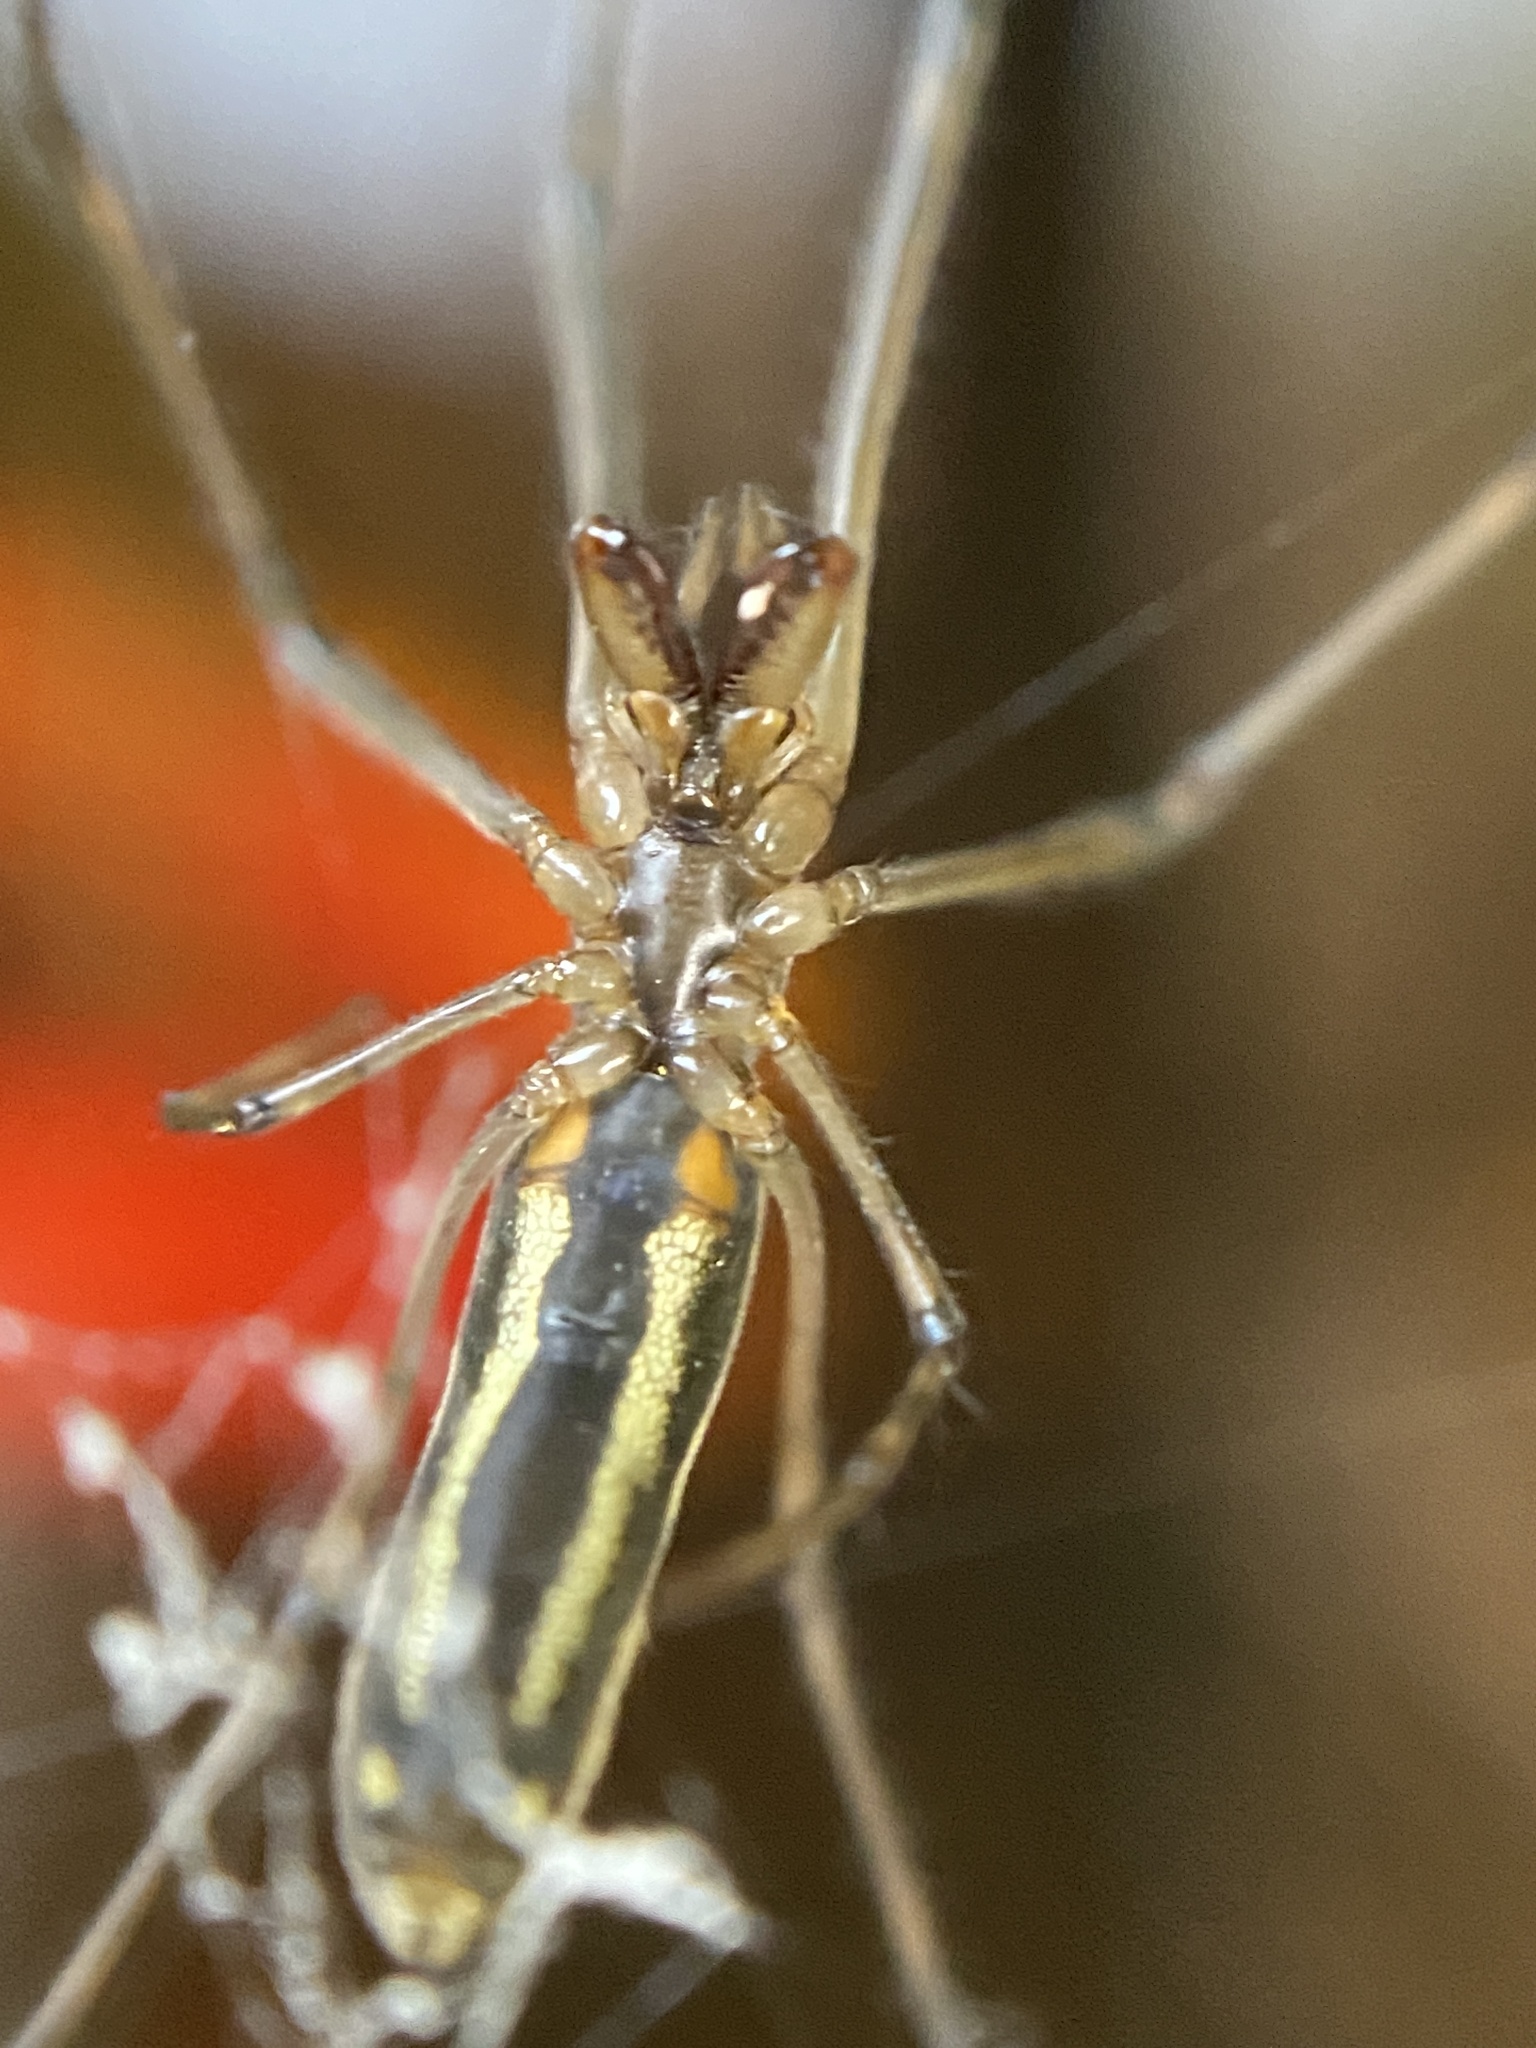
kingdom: Animalia
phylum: Arthropoda
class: Arachnida
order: Araneae
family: Tetragnathidae
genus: Tetragnatha
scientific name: Tetragnatha nitens
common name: Longjawed orb weavers
